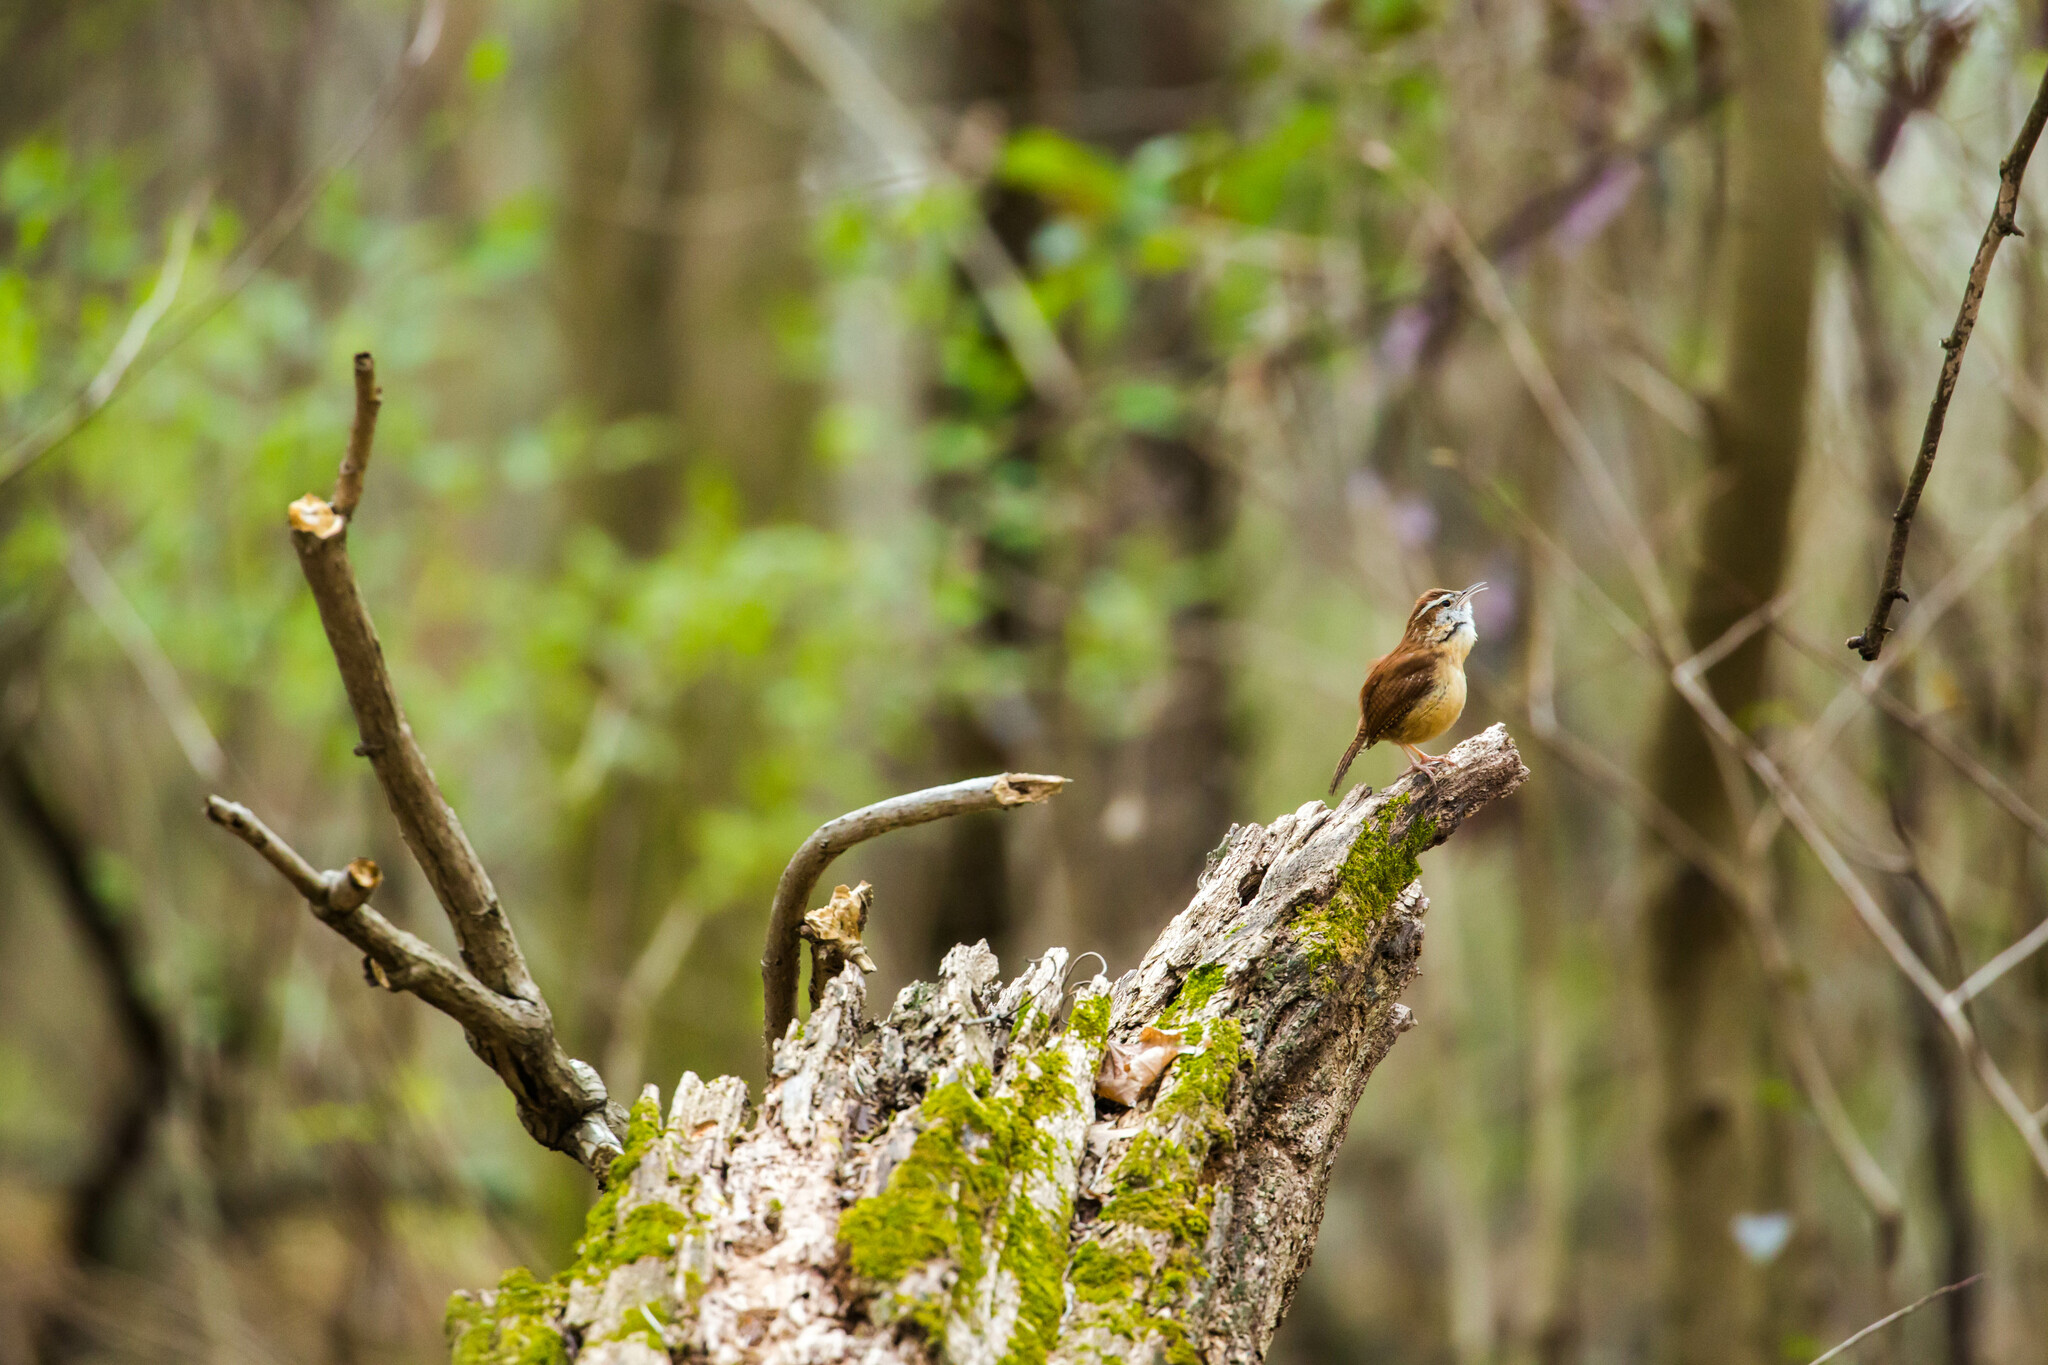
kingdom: Animalia
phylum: Chordata
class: Aves
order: Passeriformes
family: Troglodytidae
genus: Thryothorus
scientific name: Thryothorus ludovicianus
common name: Carolina wren
